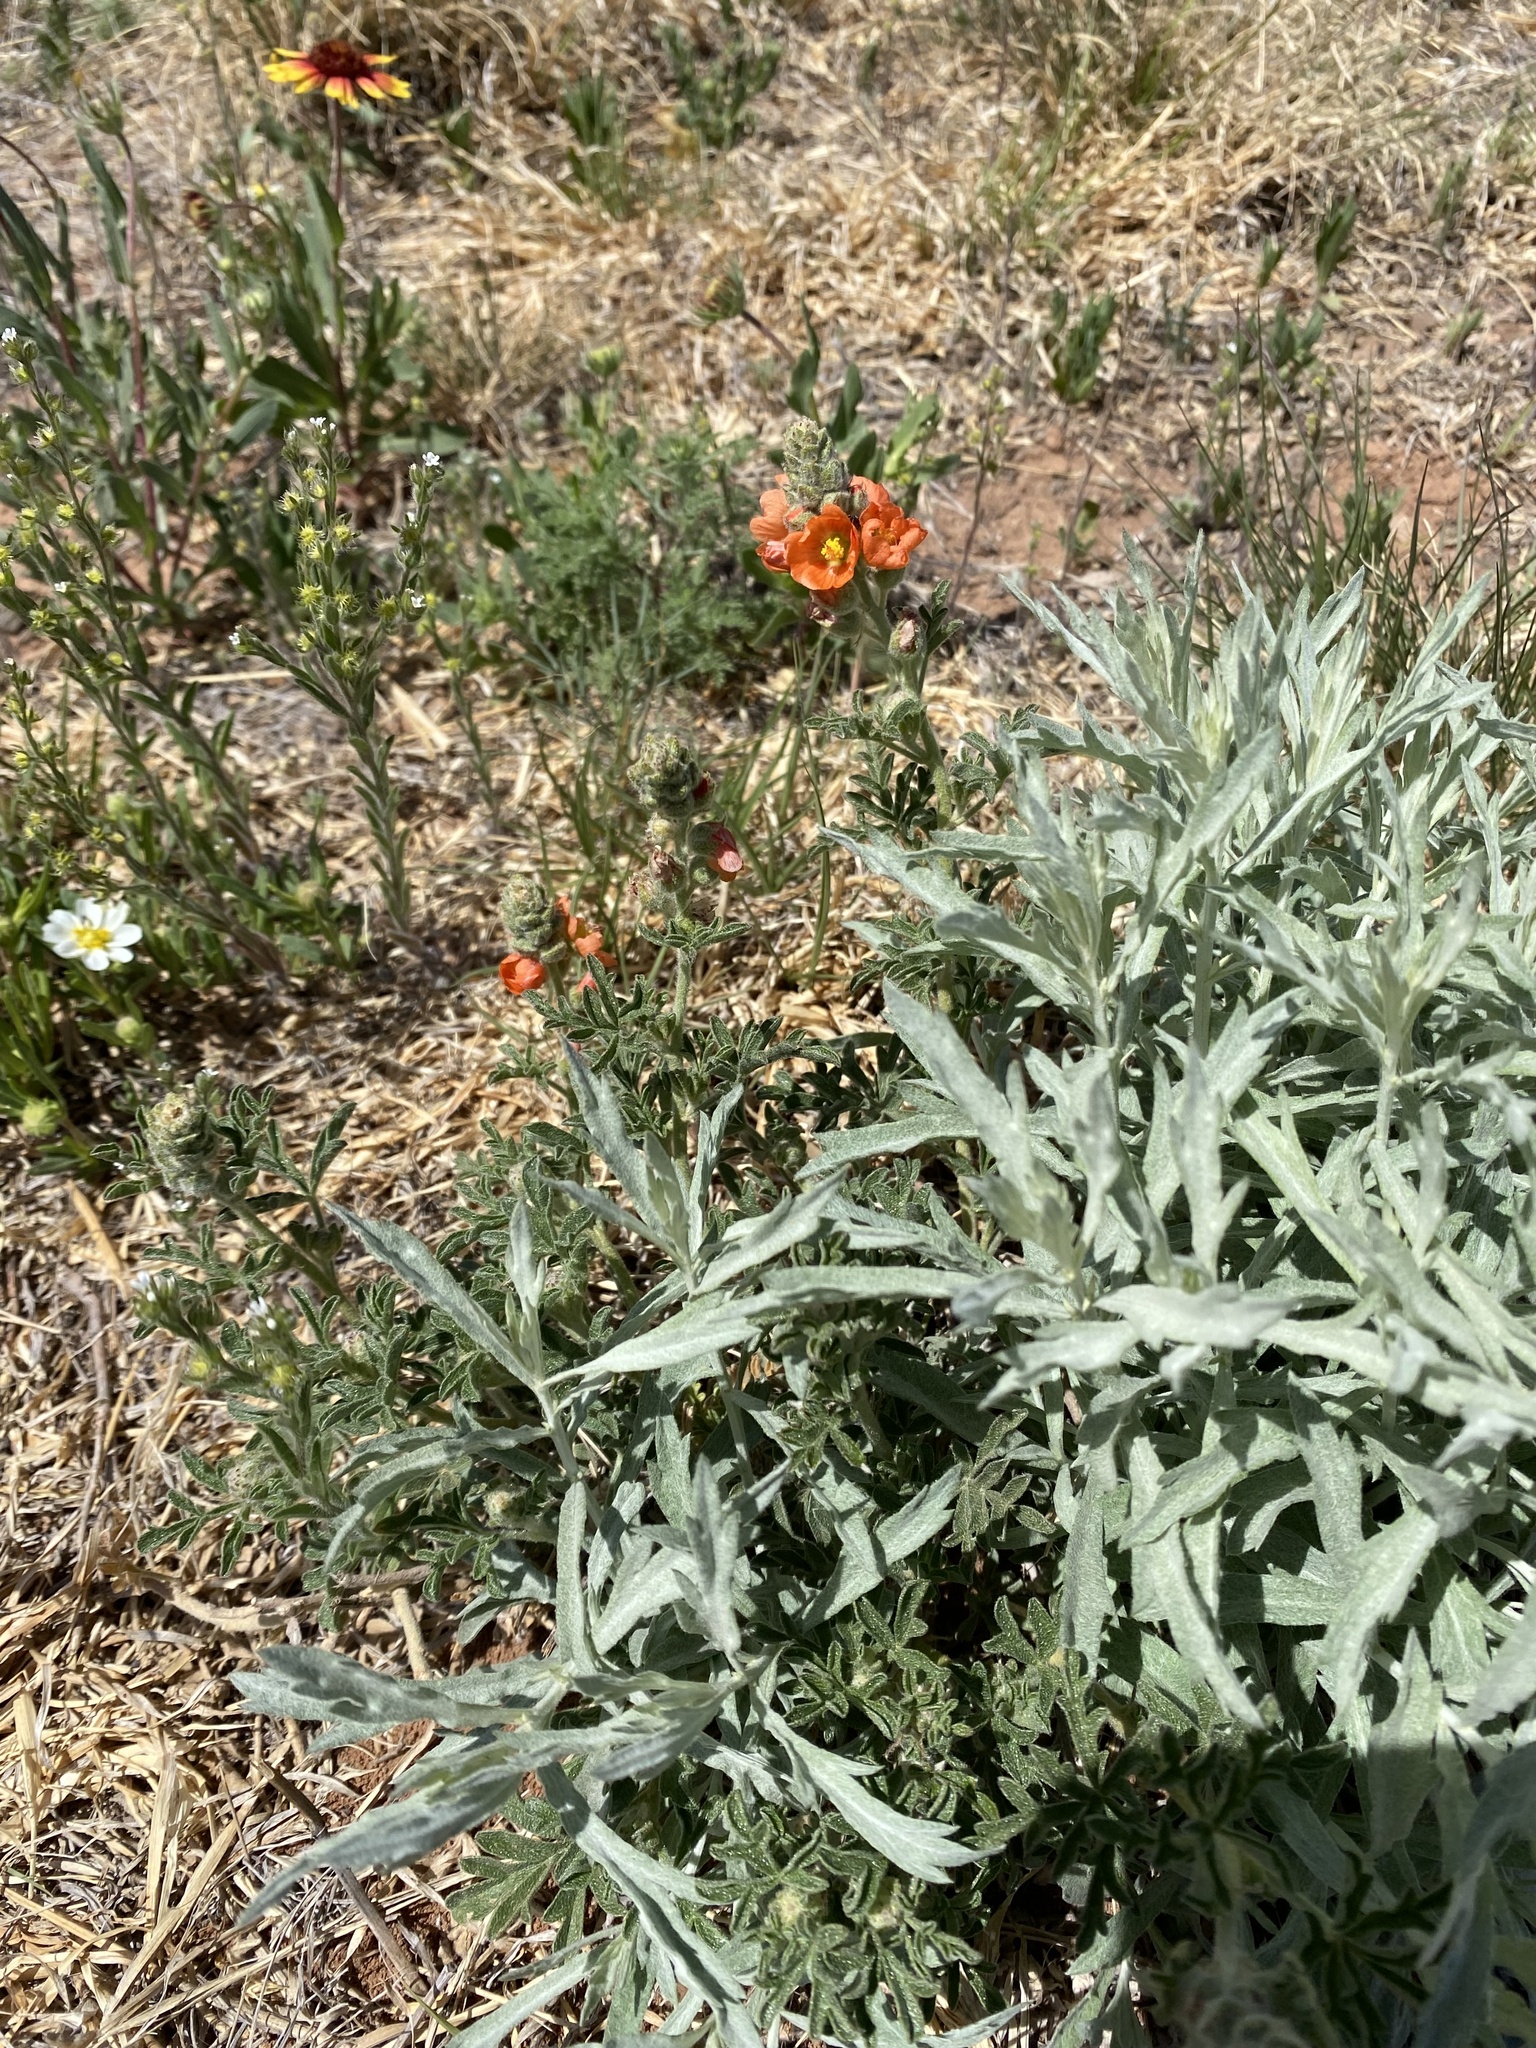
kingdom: Plantae
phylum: Tracheophyta
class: Magnoliopsida
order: Malvales
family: Malvaceae
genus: Sphaeralcea
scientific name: Sphaeralcea coccinea
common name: Moss-rose
